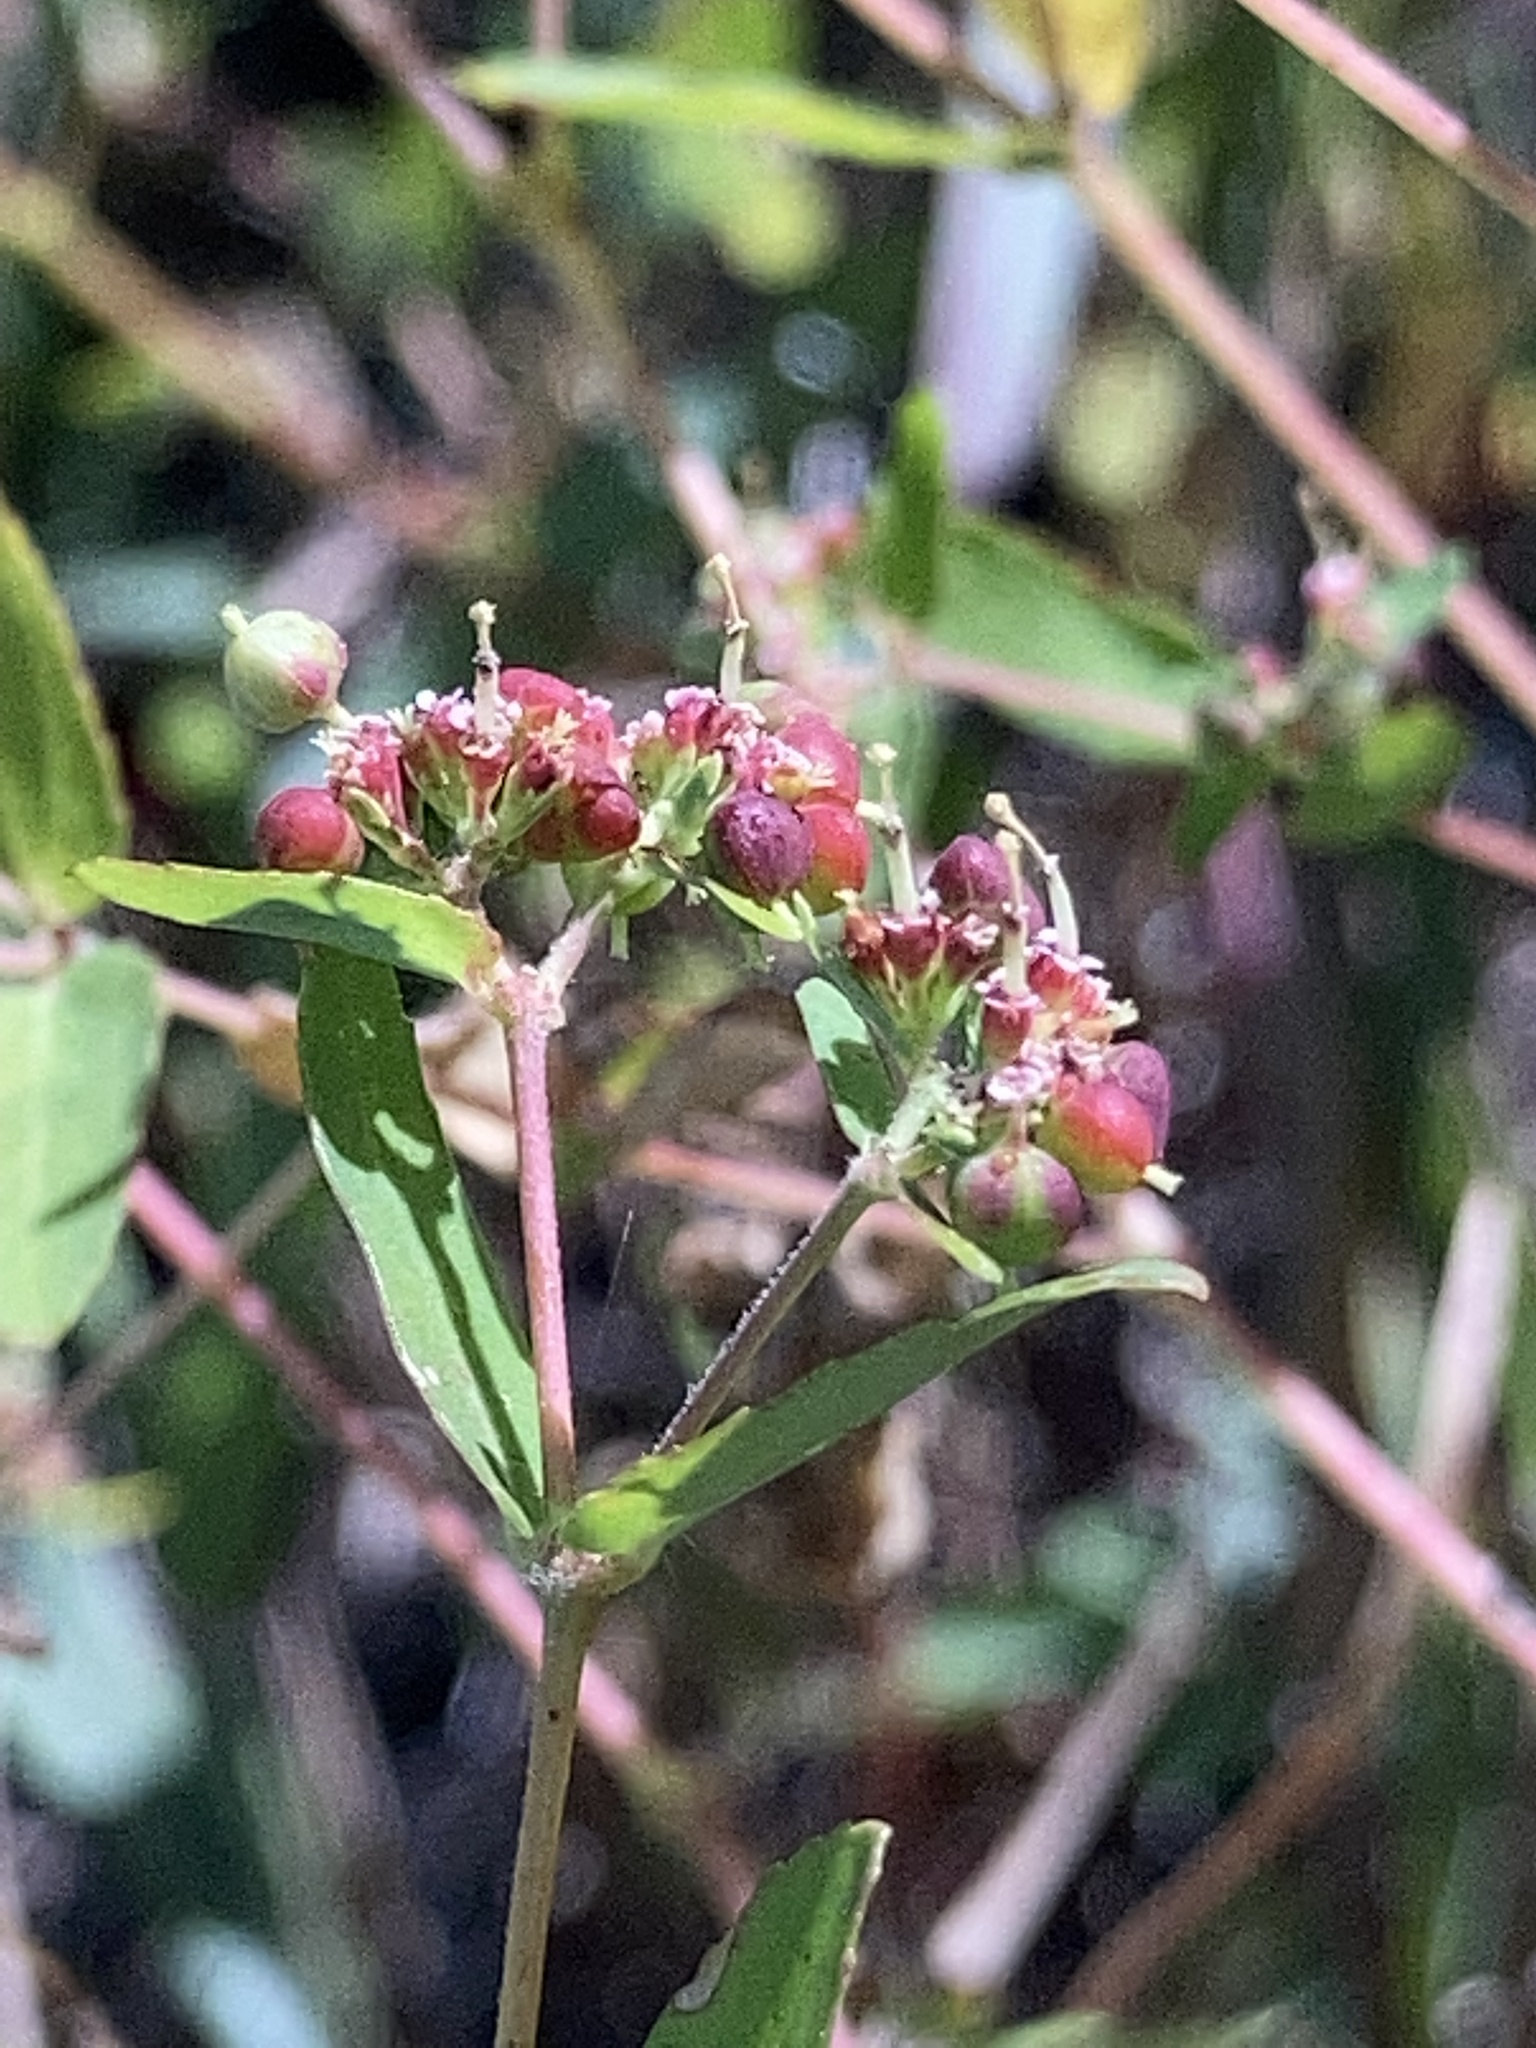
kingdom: Plantae
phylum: Tracheophyta
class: Magnoliopsida
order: Malpighiales
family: Euphorbiaceae
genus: Euphorbia
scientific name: Euphorbia nutans
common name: Eyebane
